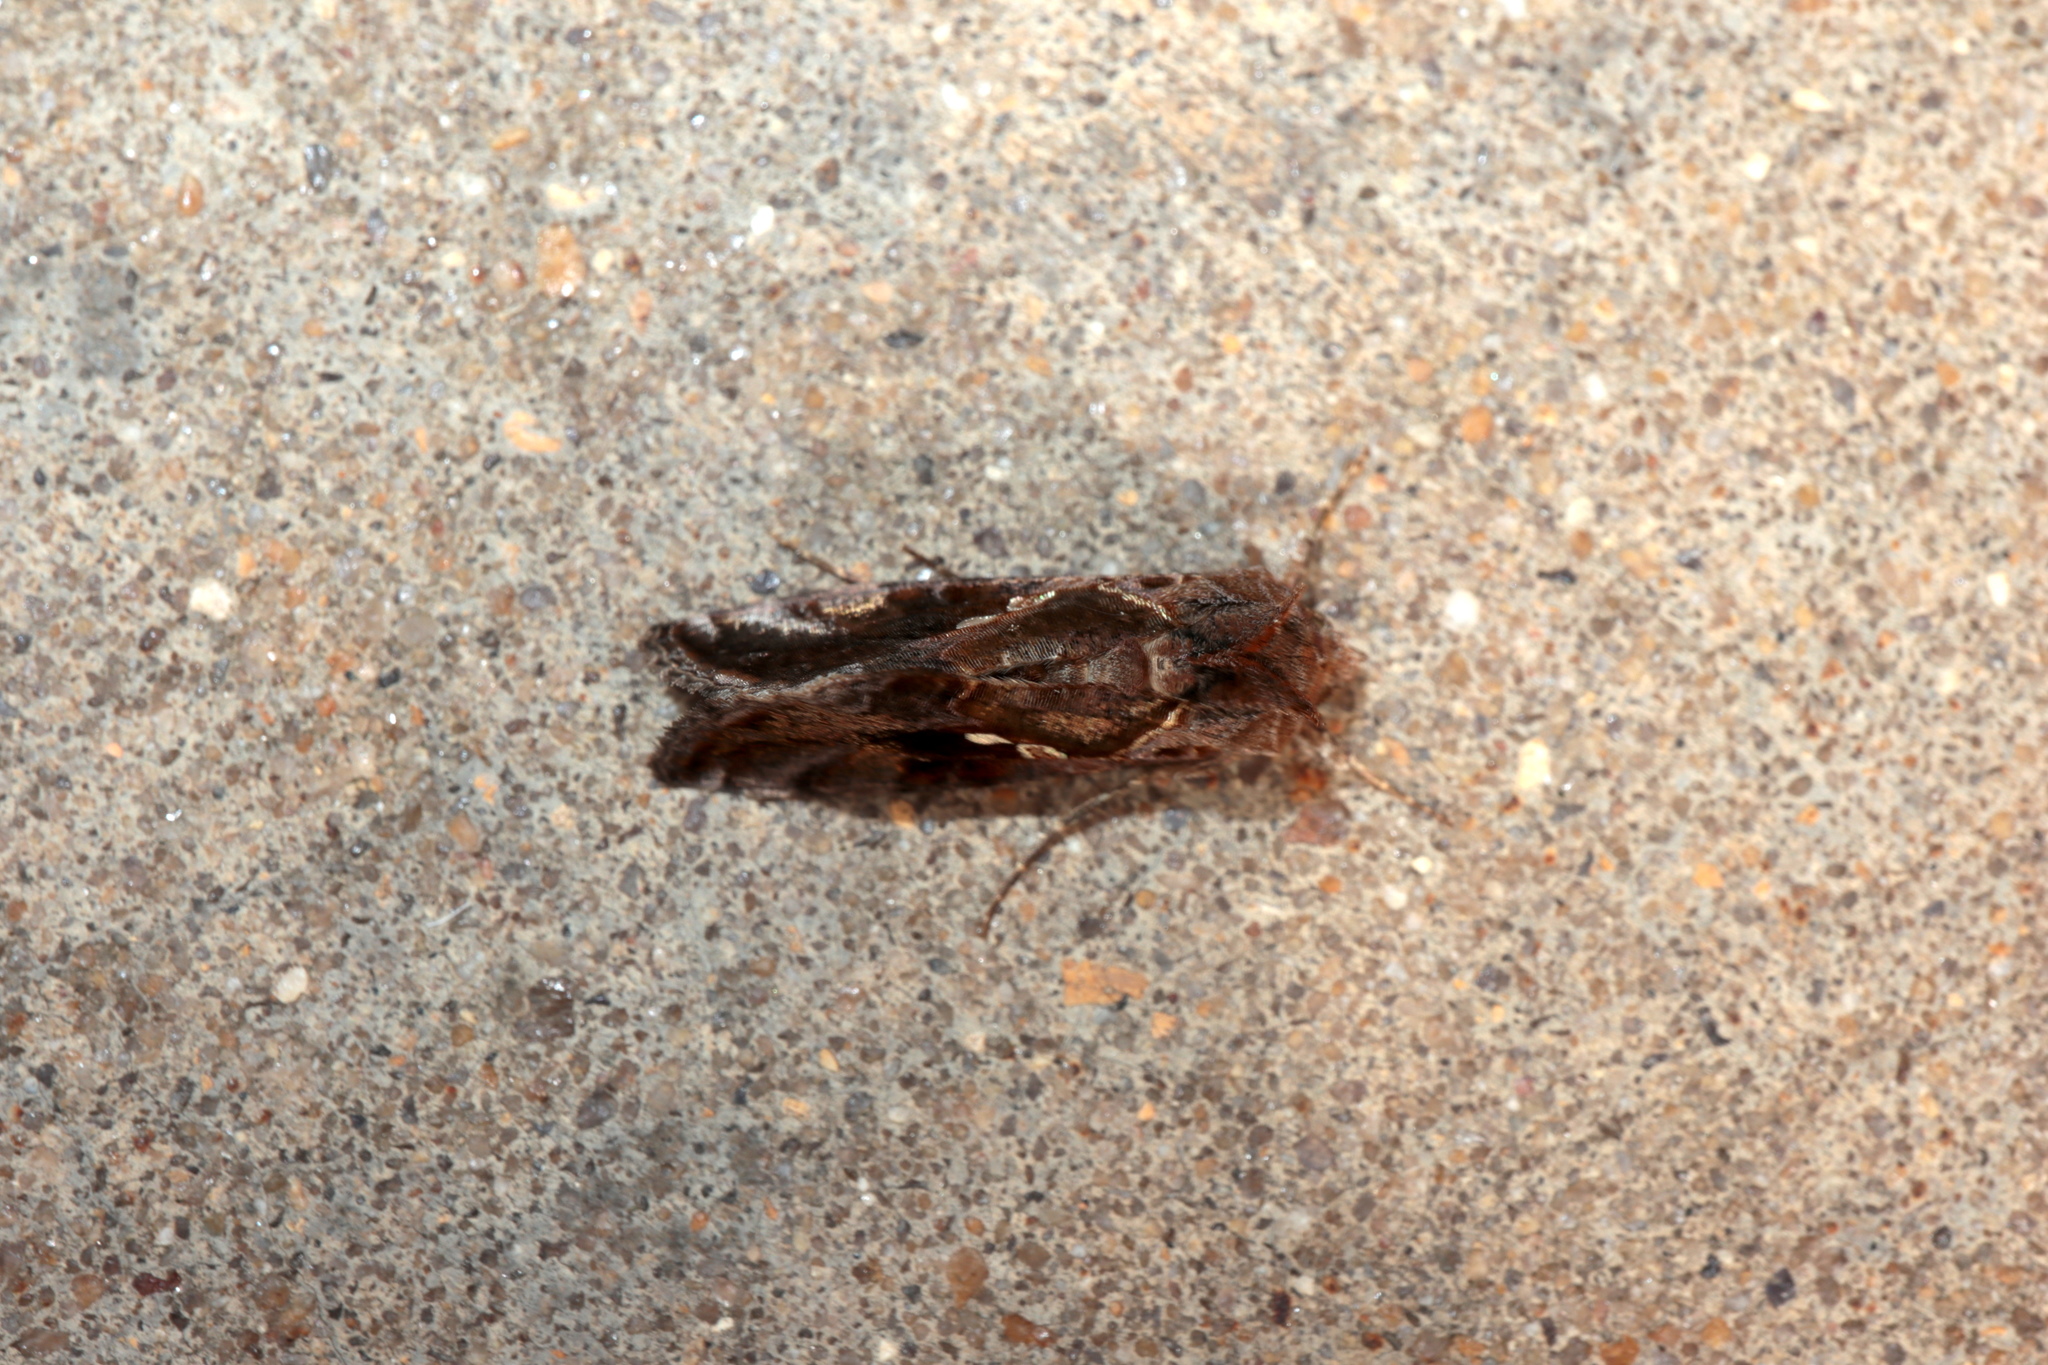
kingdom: Animalia
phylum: Arthropoda
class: Insecta
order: Lepidoptera
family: Noctuidae
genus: Chrysodeixis
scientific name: Chrysodeixis includens
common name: Cutworm moth
